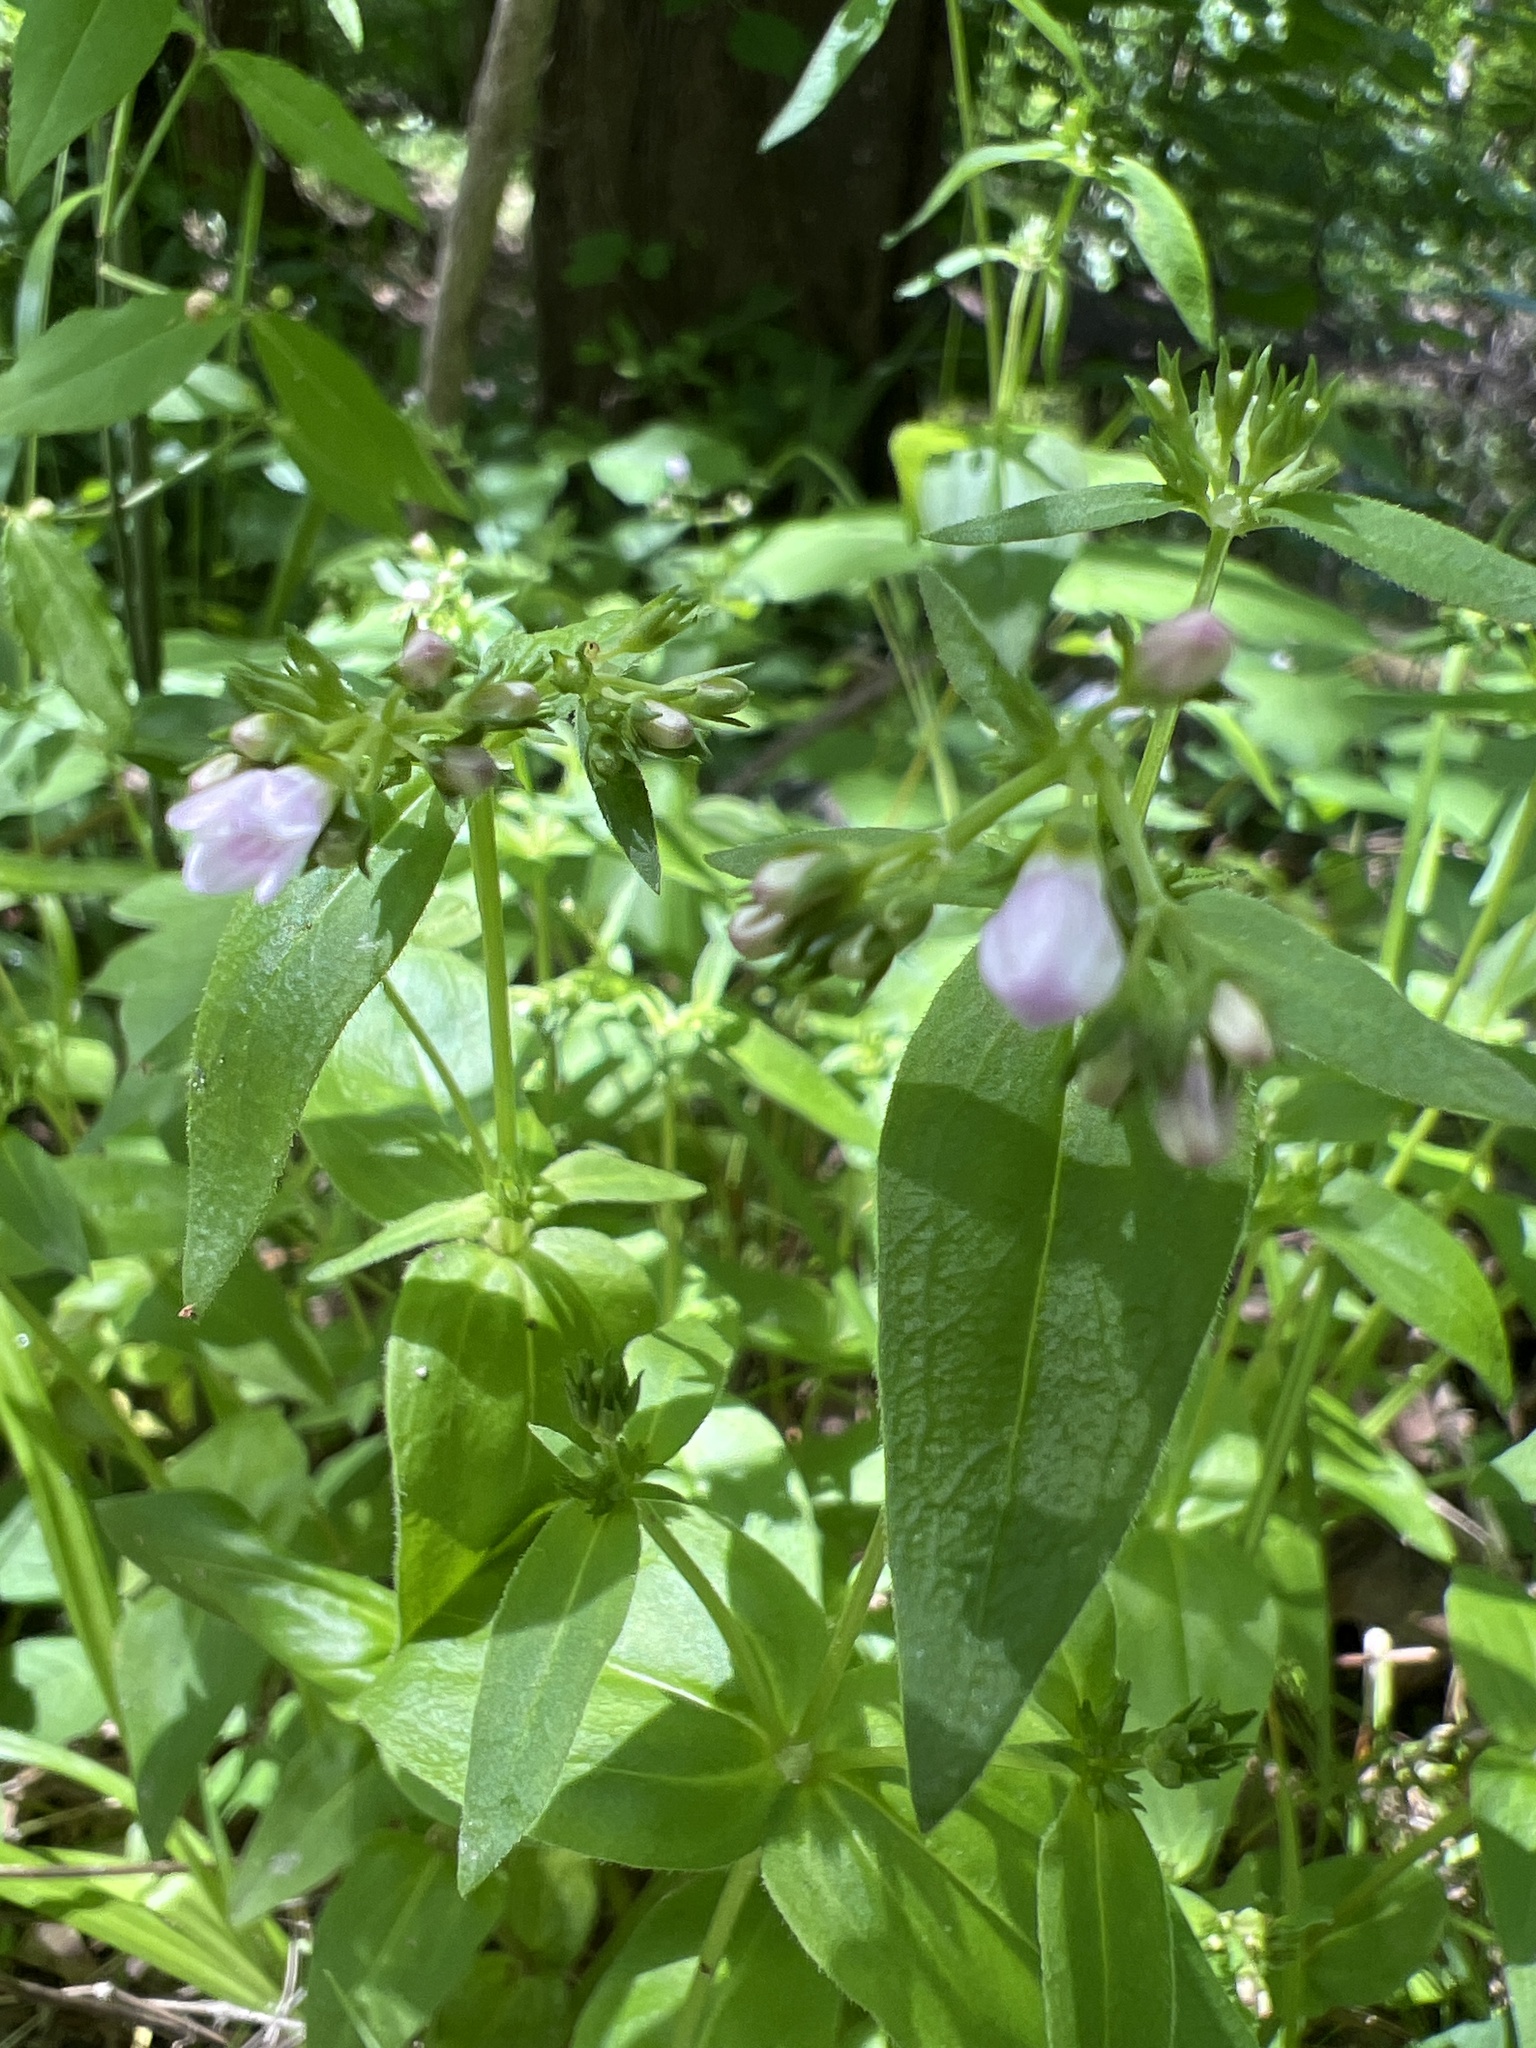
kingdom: Plantae
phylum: Tracheophyta
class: Magnoliopsida
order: Gentianales
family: Rubiaceae
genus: Houstonia
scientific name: Houstonia purpurea
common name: Summer bluet
